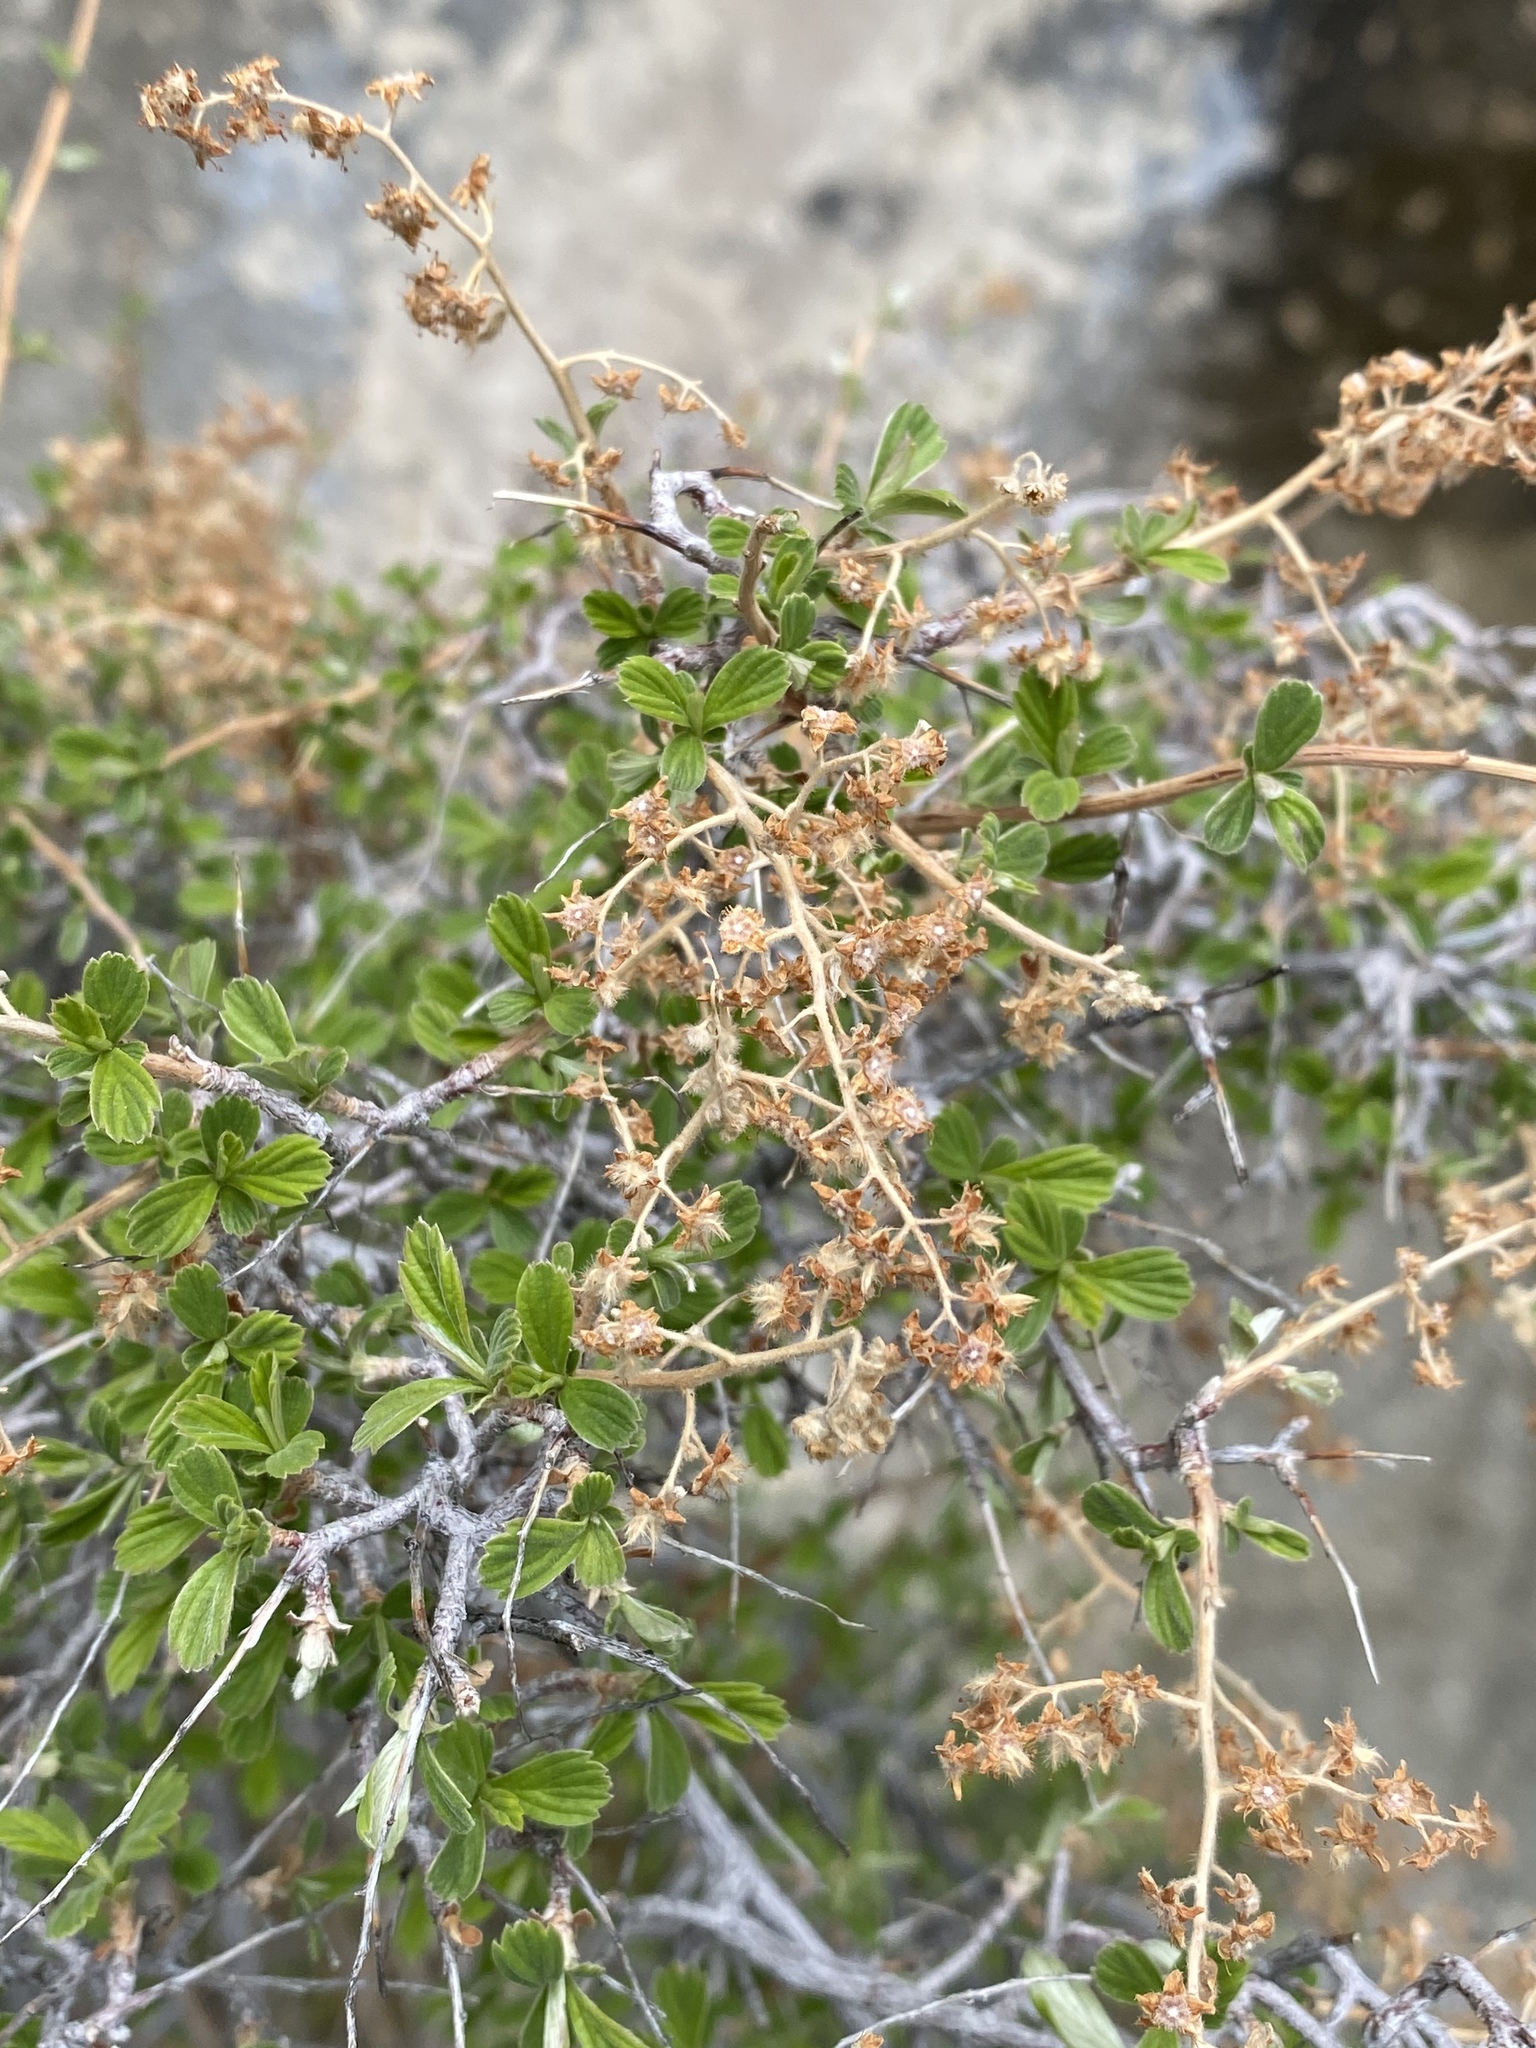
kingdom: Plantae
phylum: Tracheophyta
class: Magnoliopsida
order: Rosales
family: Rosaceae
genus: Holodiscus
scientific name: Holodiscus discolor
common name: Oceanspray
